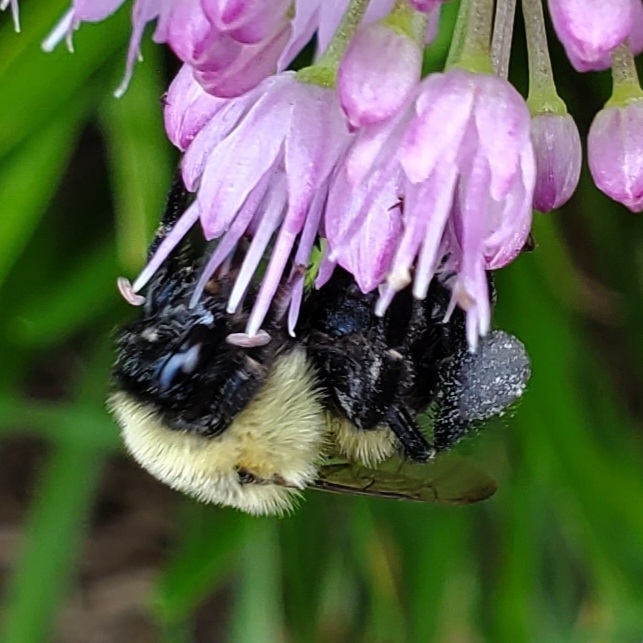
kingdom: Animalia
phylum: Arthropoda
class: Insecta
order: Hymenoptera
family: Apidae
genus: Bombus
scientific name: Bombus impatiens
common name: Common eastern bumble bee
